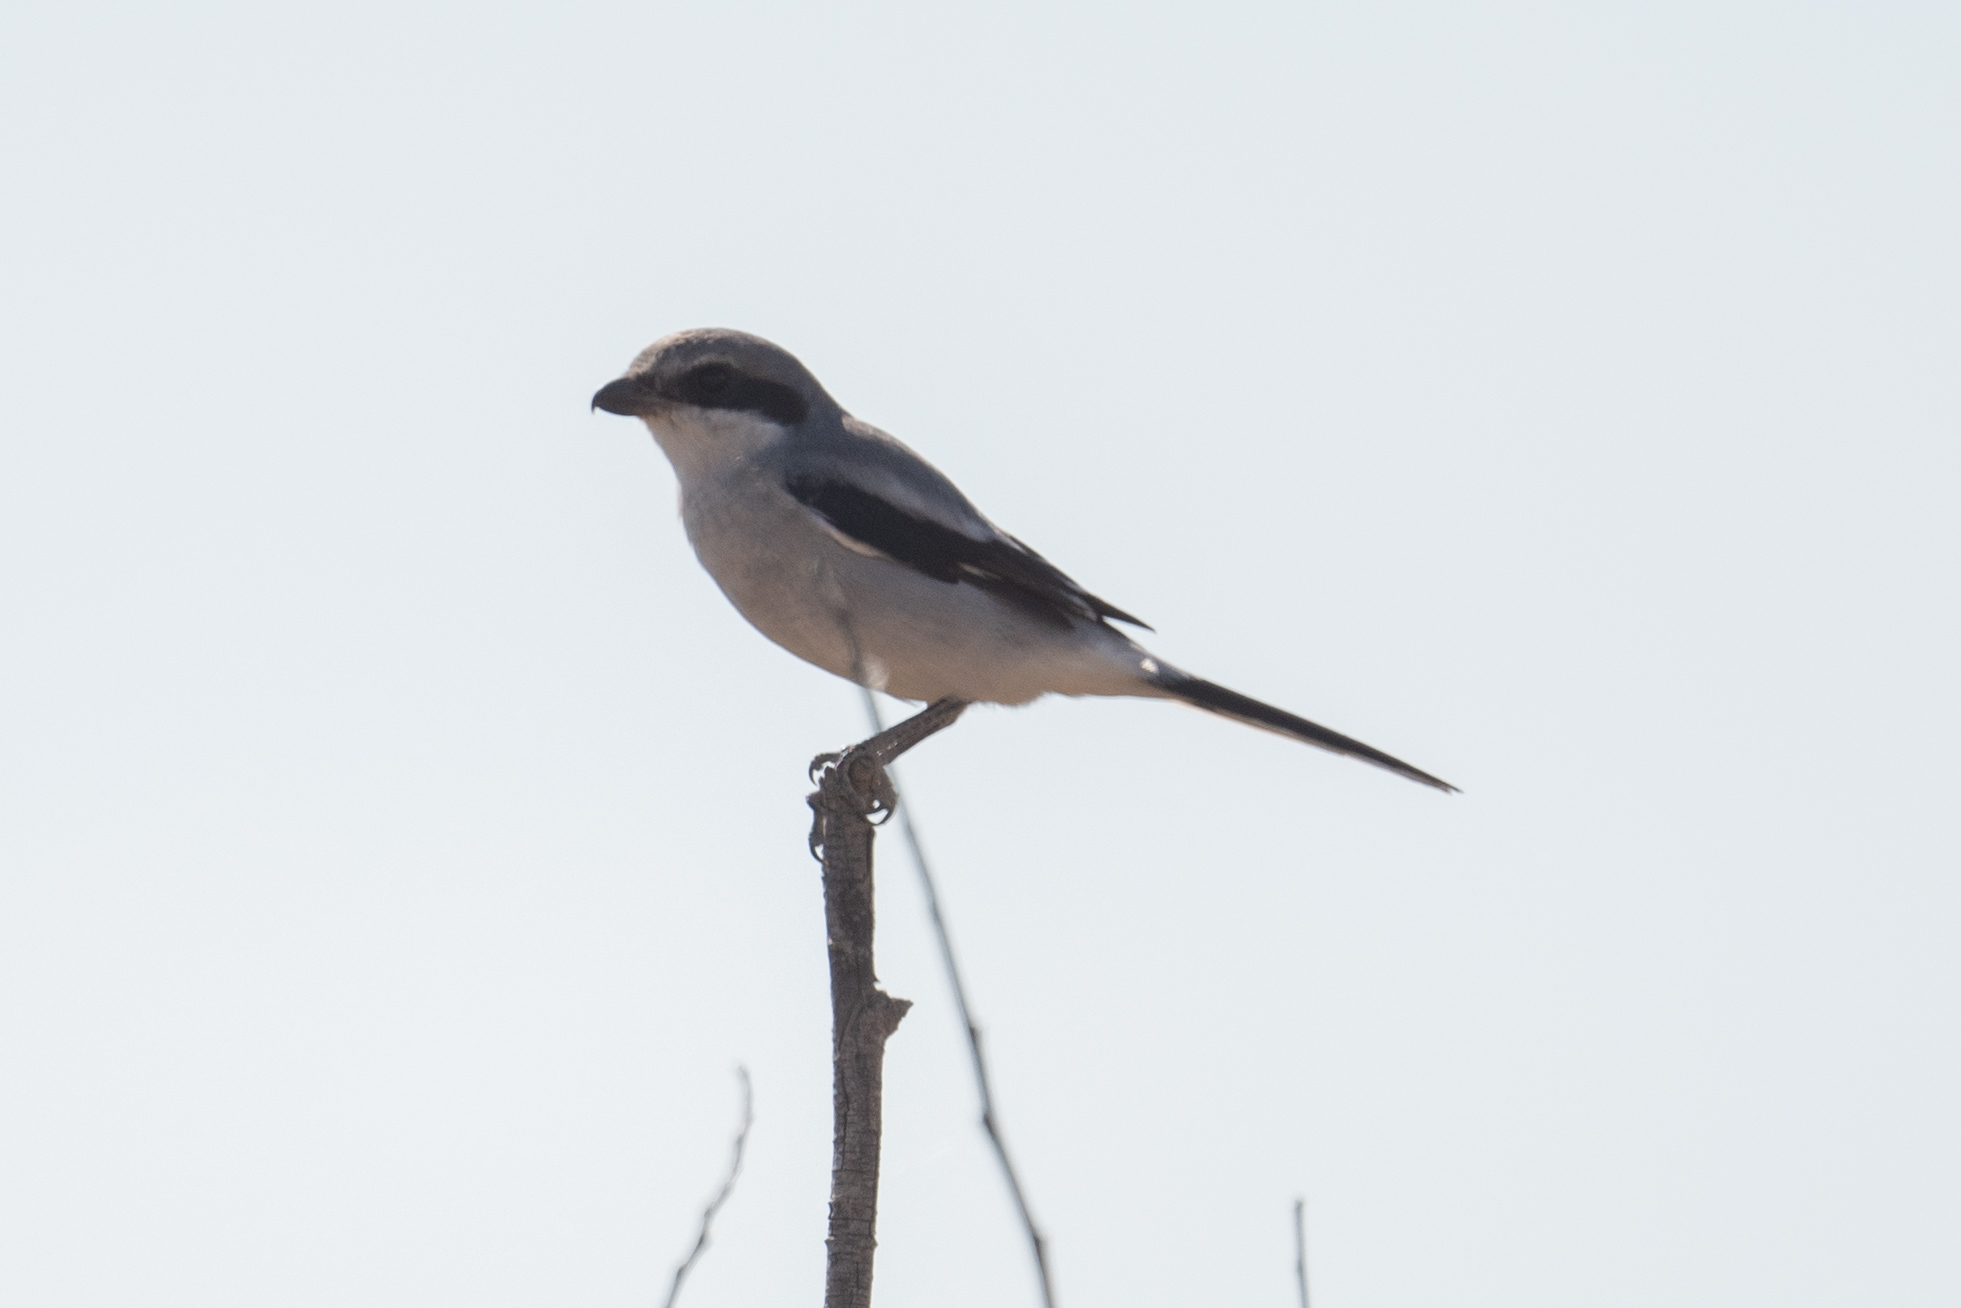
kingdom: Animalia
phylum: Chordata
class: Aves
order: Passeriformes
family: Laniidae
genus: Lanius
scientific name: Lanius ludovicianus
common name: Loggerhead shrike
